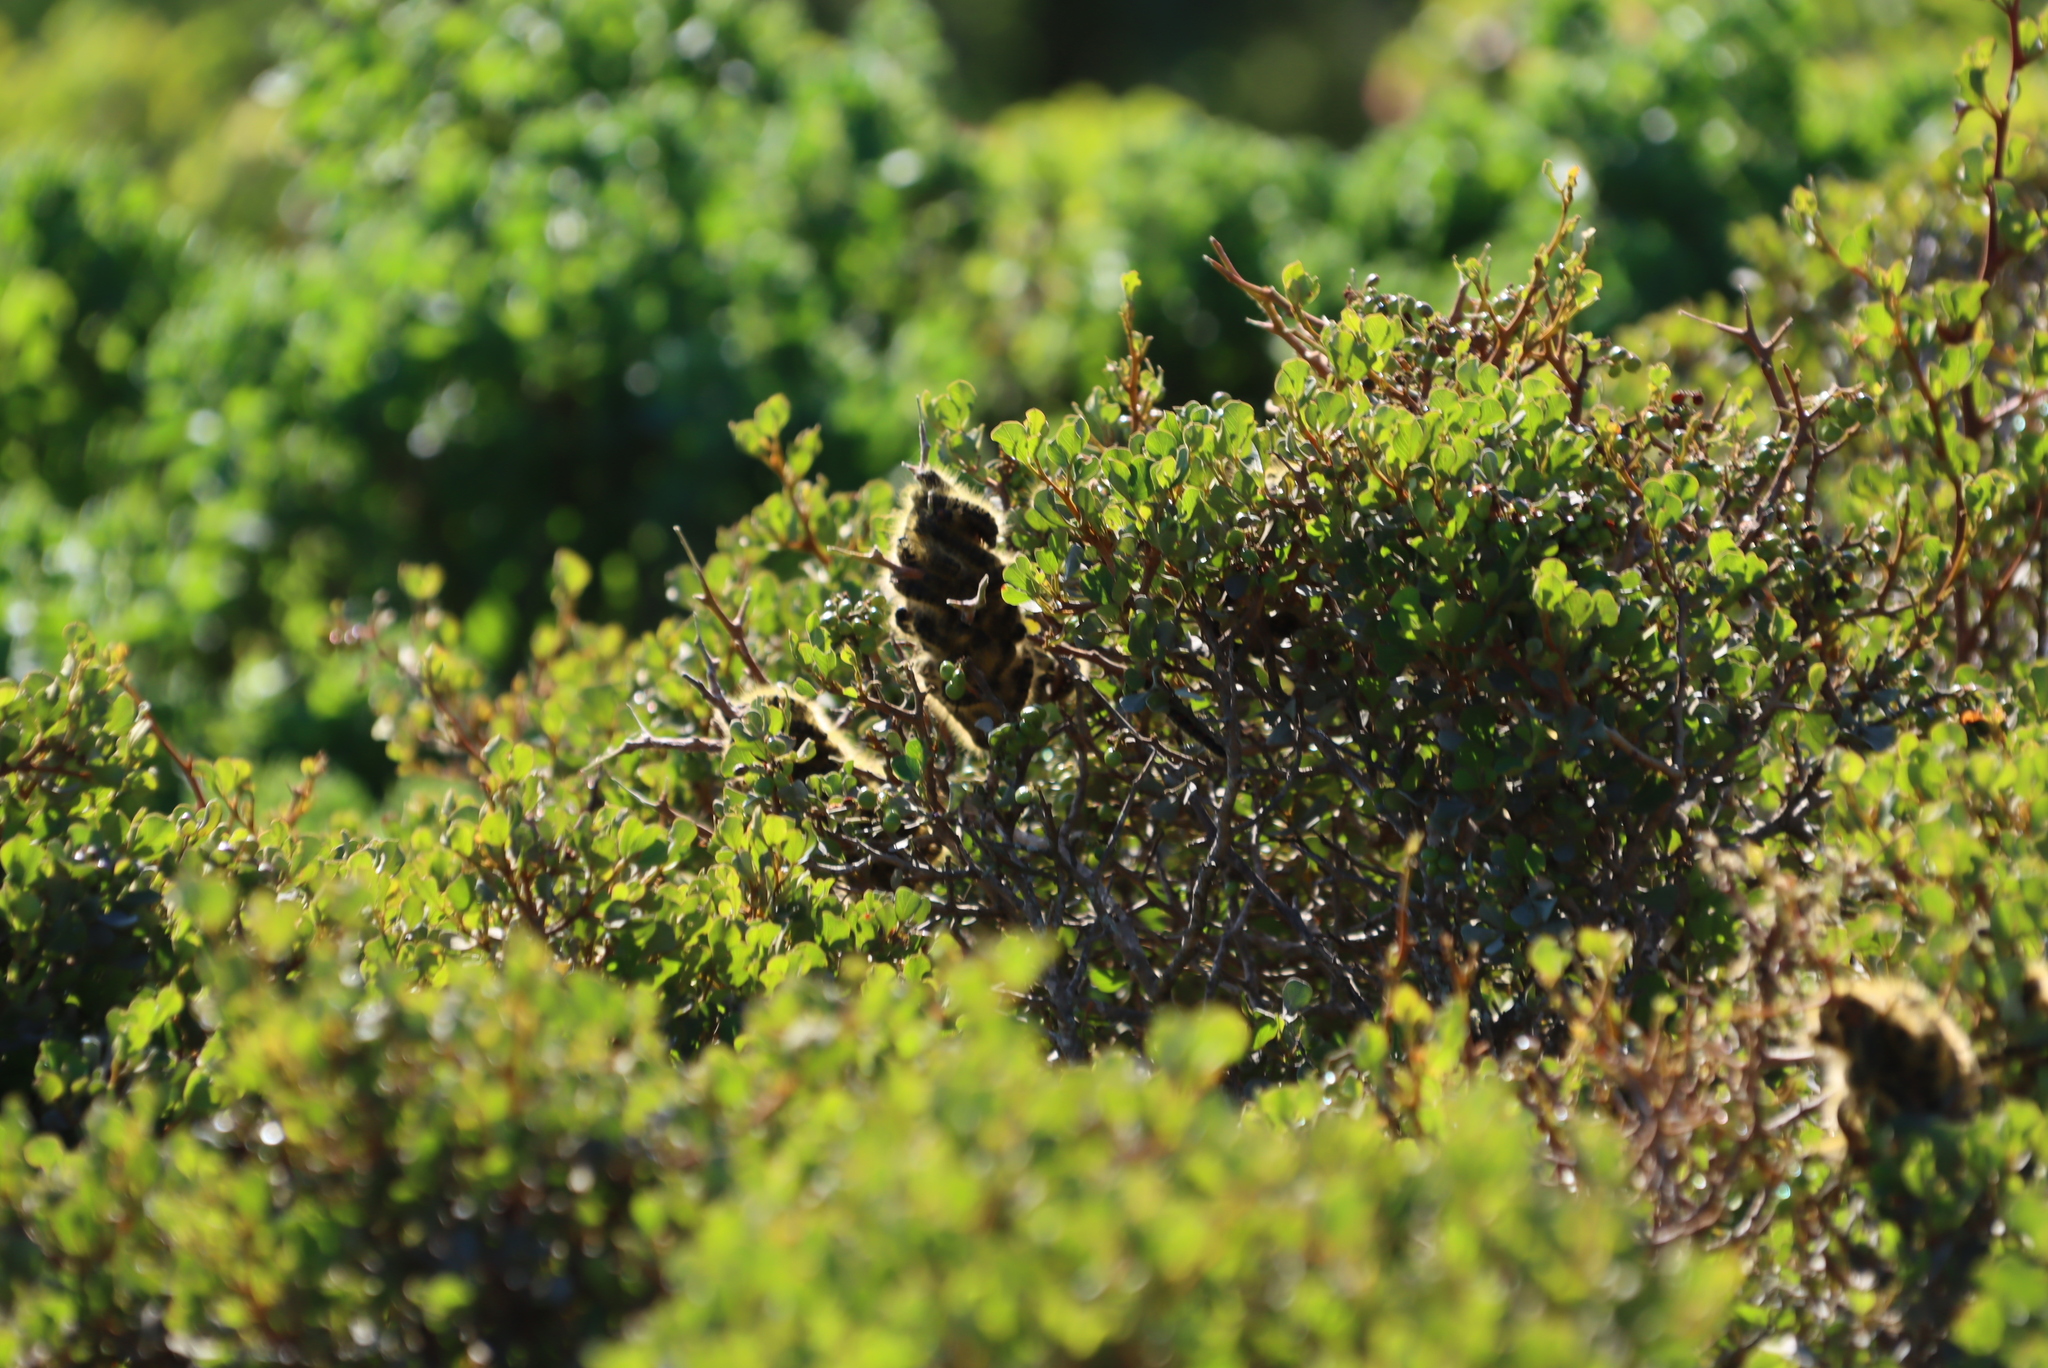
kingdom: Plantae
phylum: Tracheophyta
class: Magnoliopsida
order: Sapindales
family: Anacardiaceae
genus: Searsia
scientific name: Searsia glauca
